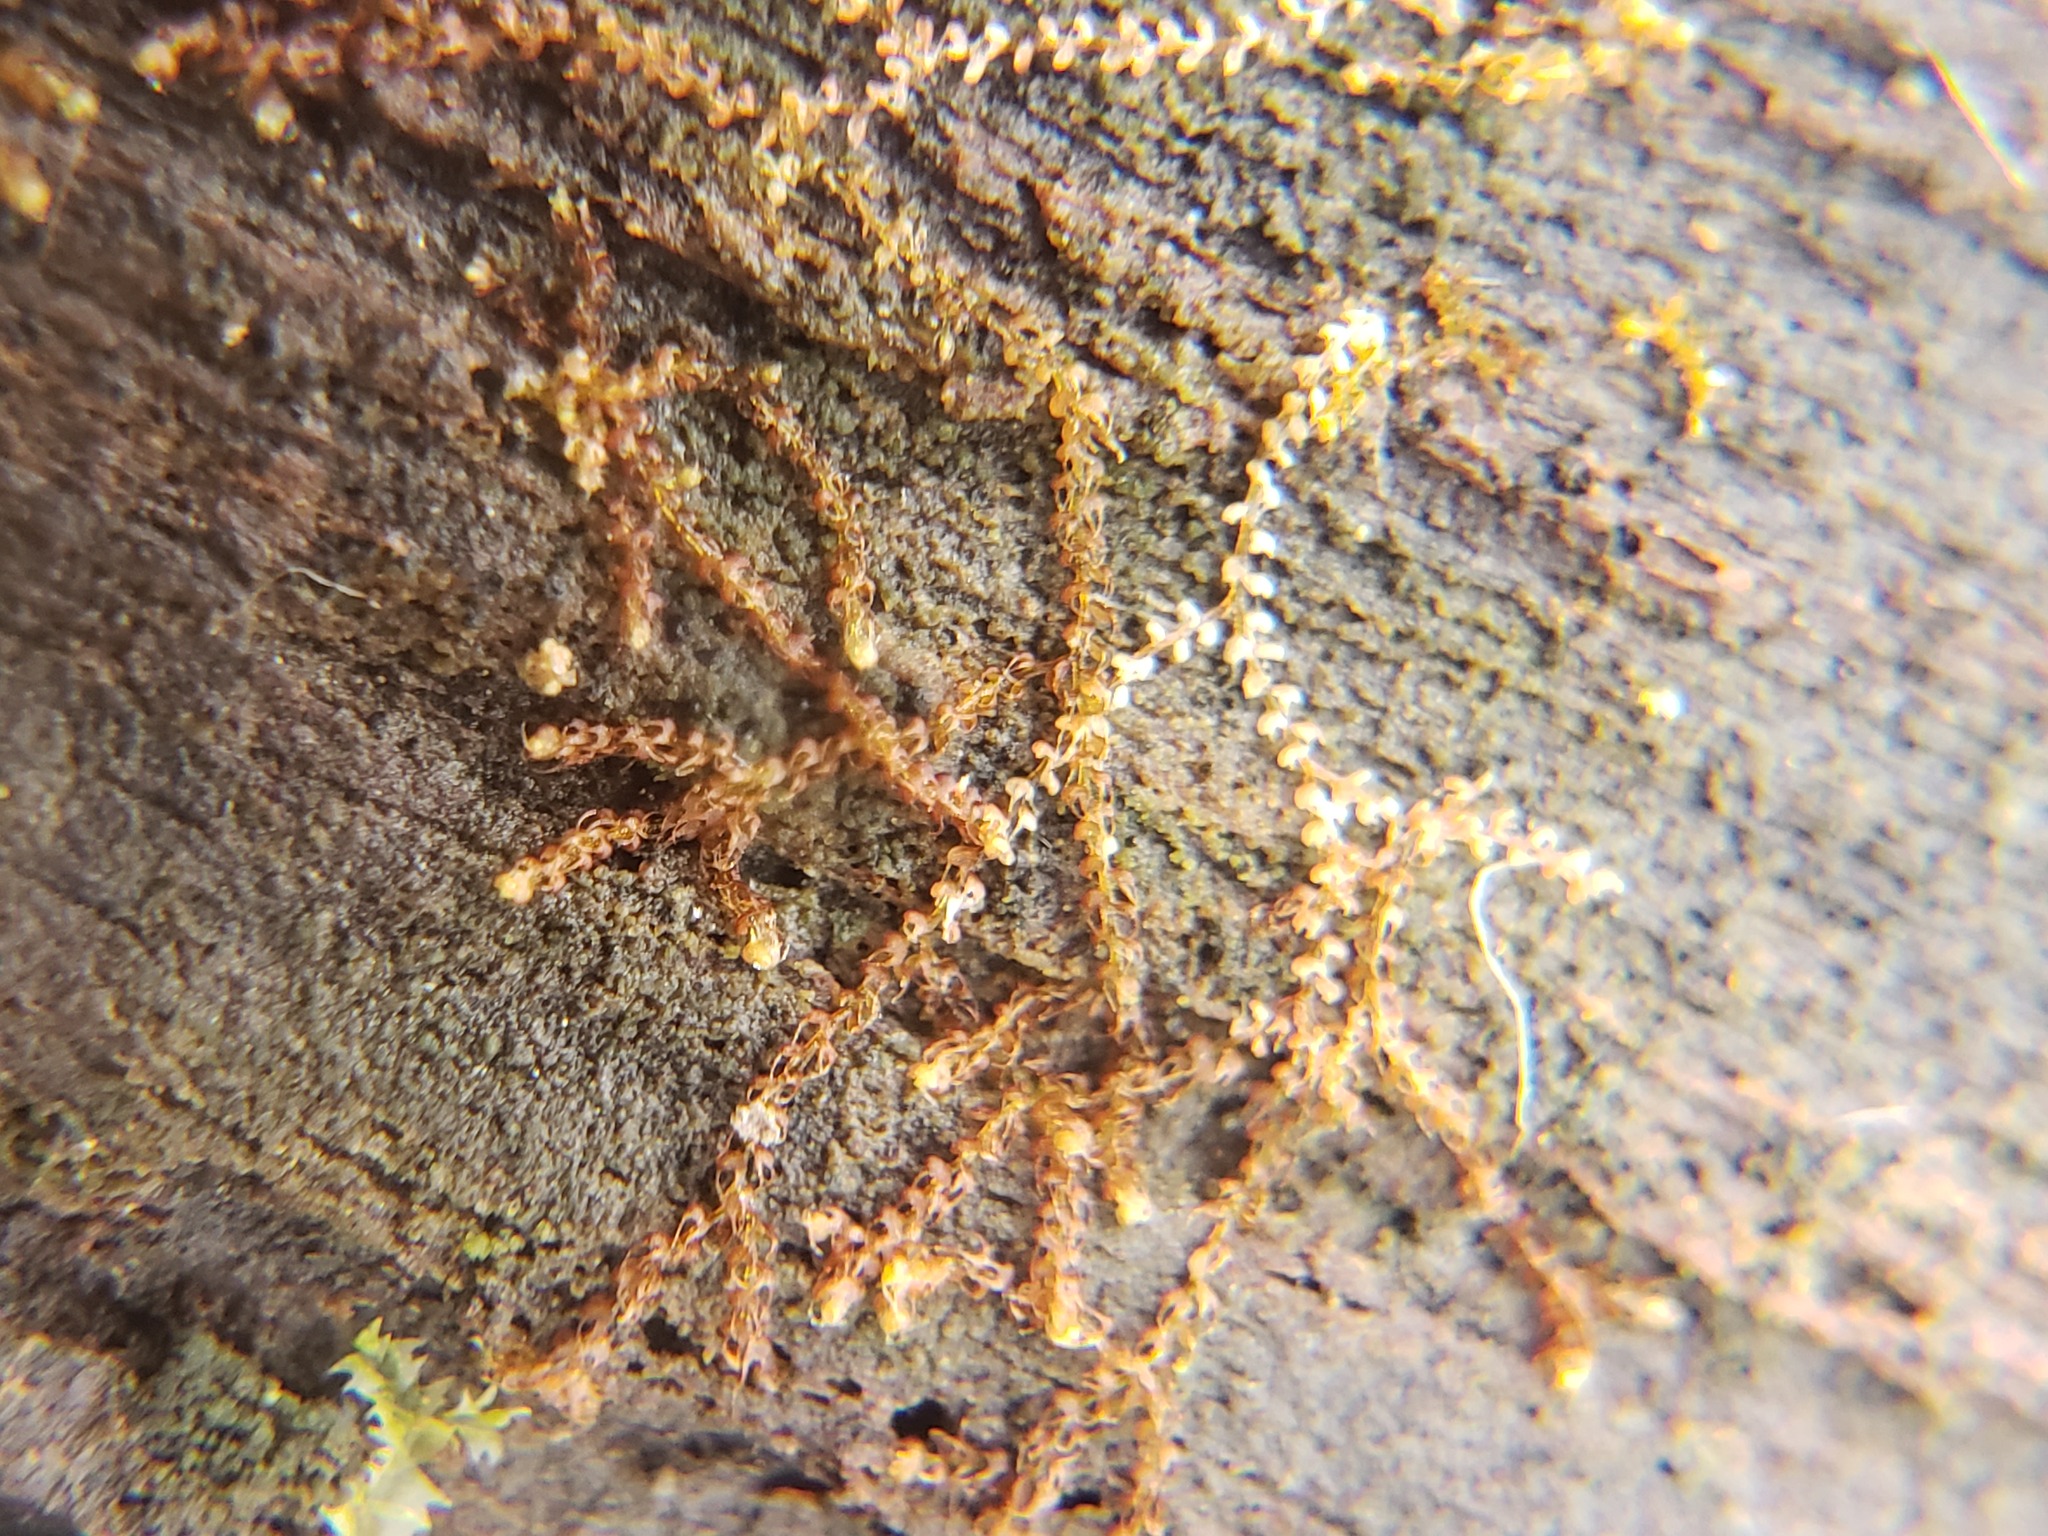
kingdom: Plantae
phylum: Marchantiophyta
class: Jungermanniopsida
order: Jungermanniales
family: Cephaloziaceae
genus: Nowellia
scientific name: Nowellia curvifolia
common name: Wood rustwort
